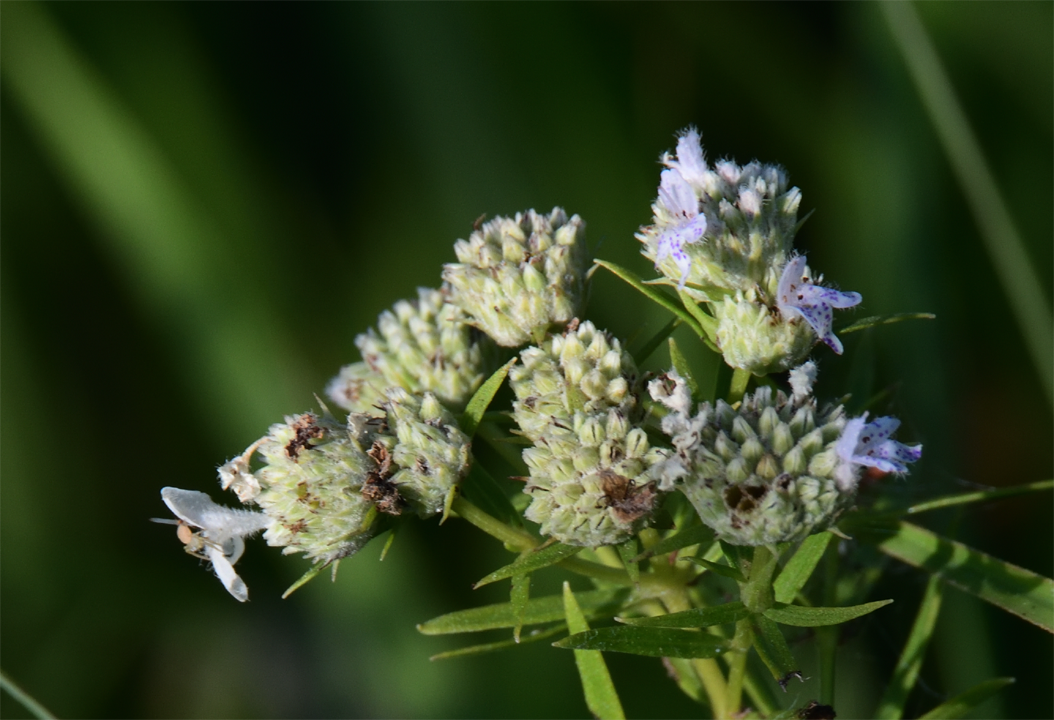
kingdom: Plantae
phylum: Tracheophyta
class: Magnoliopsida
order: Lamiales
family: Lamiaceae
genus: Pycnanthemum
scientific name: Pycnanthemum tenuifolium
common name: Narrow-leaf mountain-mint
